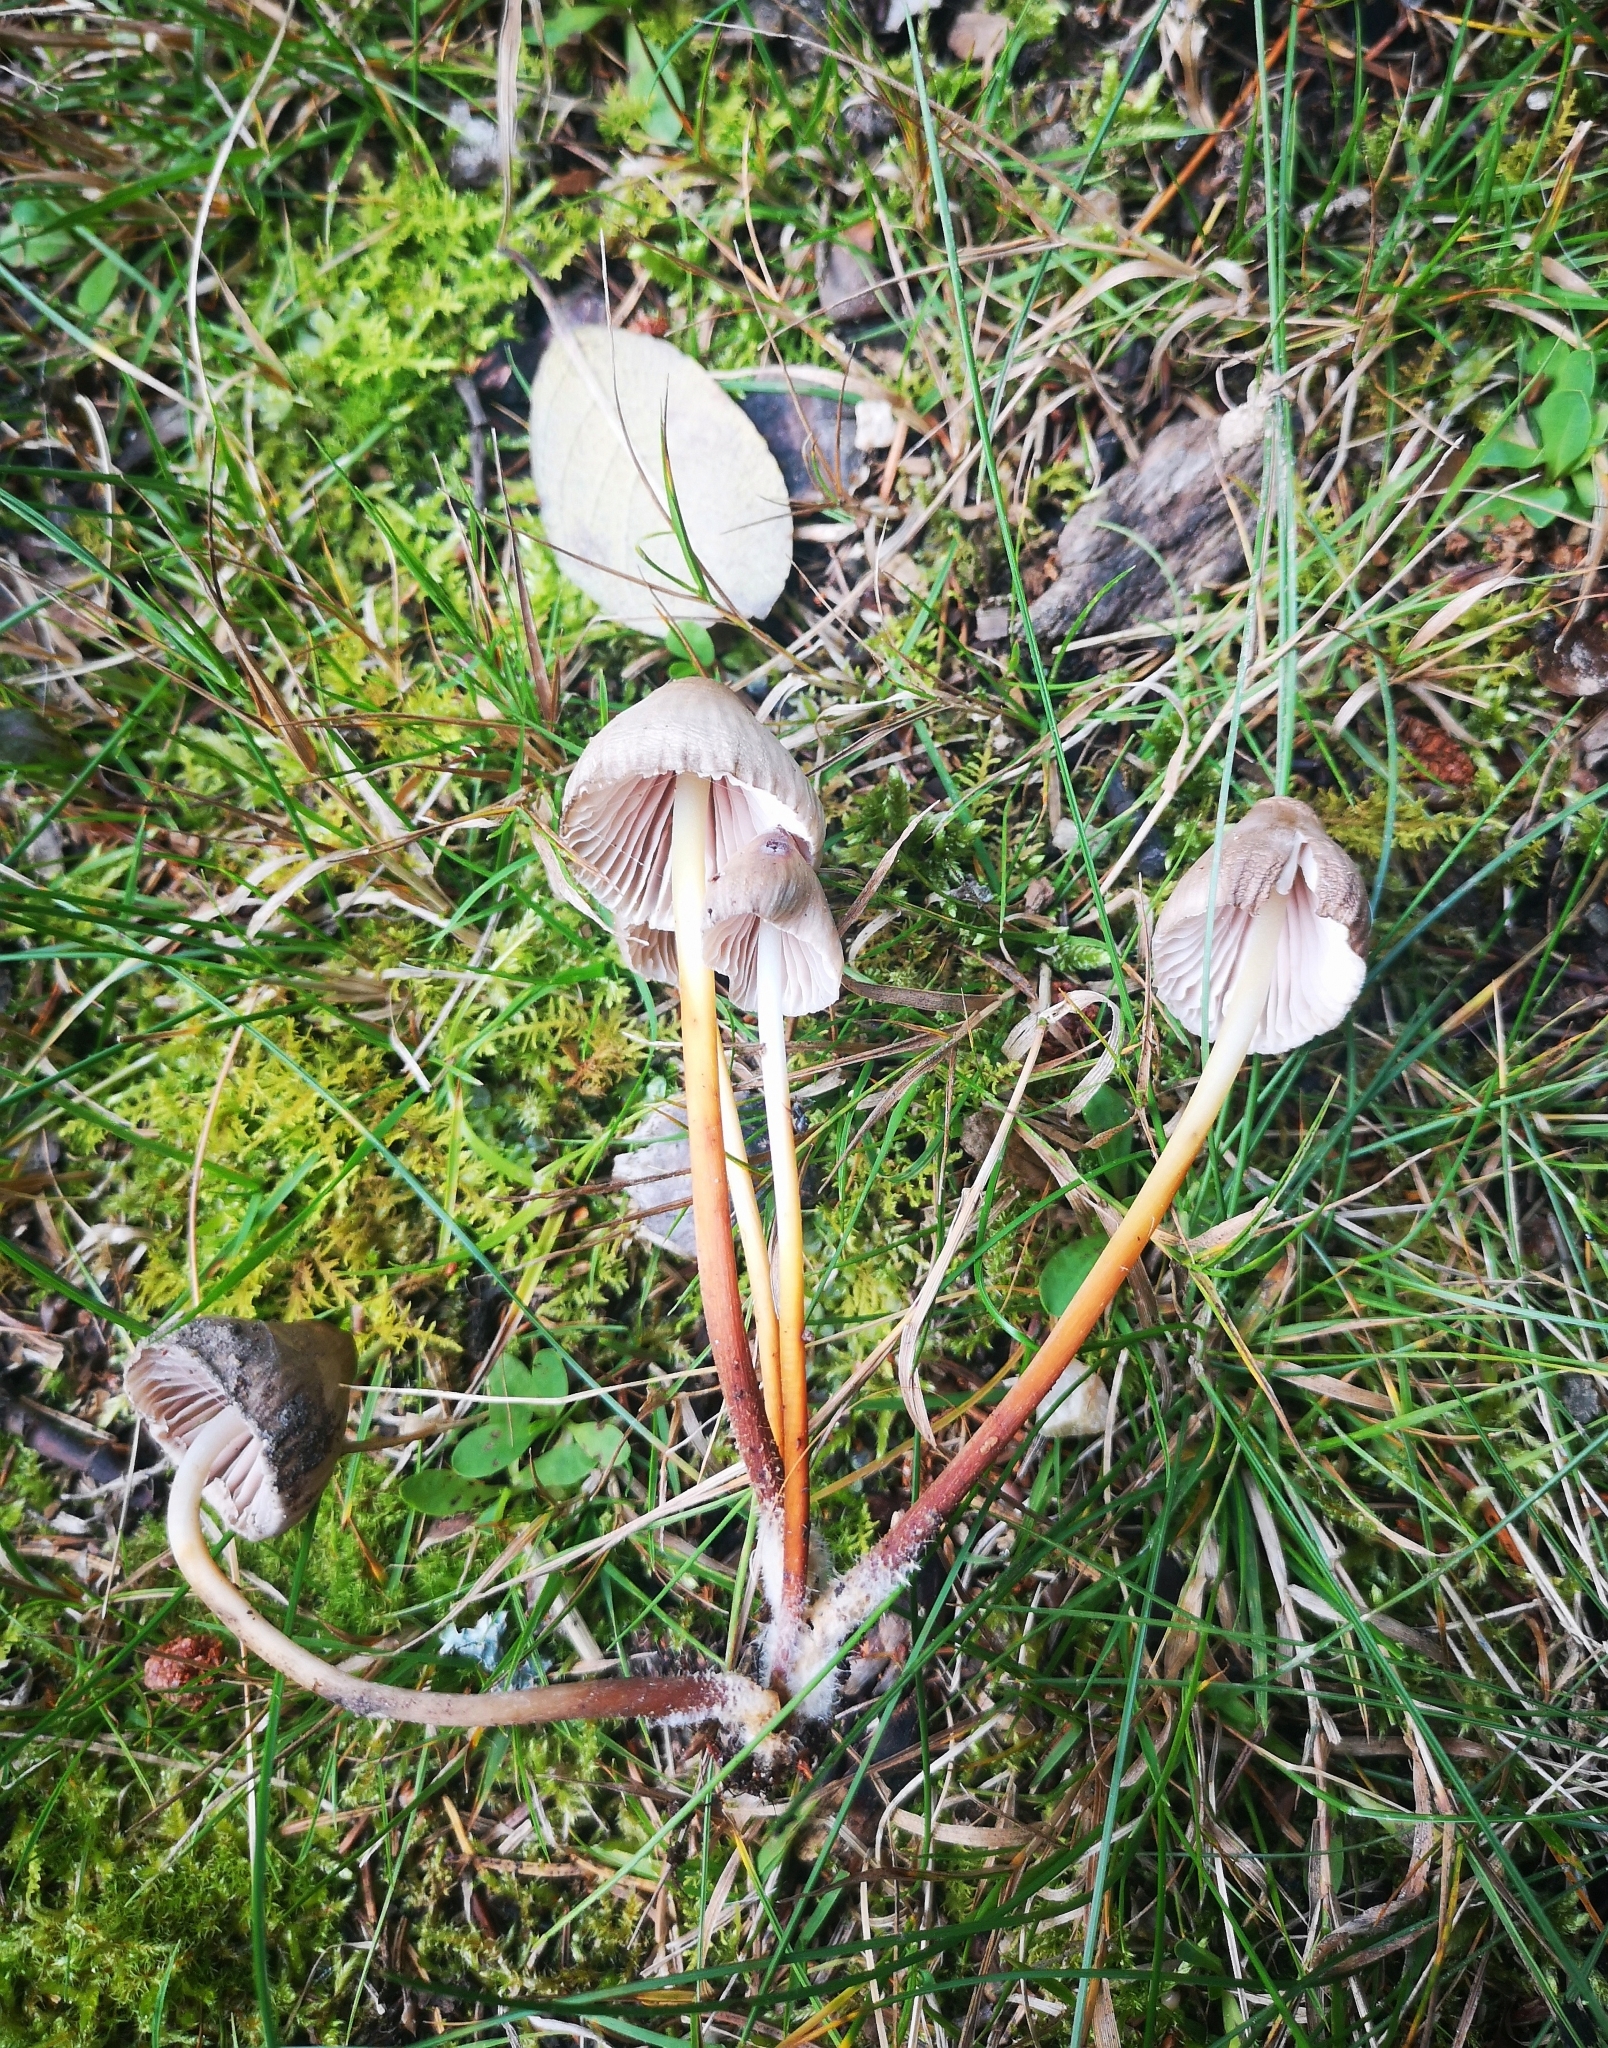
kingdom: Fungi
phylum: Basidiomycota
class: Agaricomycetes
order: Agaricales
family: Mycenaceae
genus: Mycena
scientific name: Mycena inclinata
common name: Clustered bonnet
